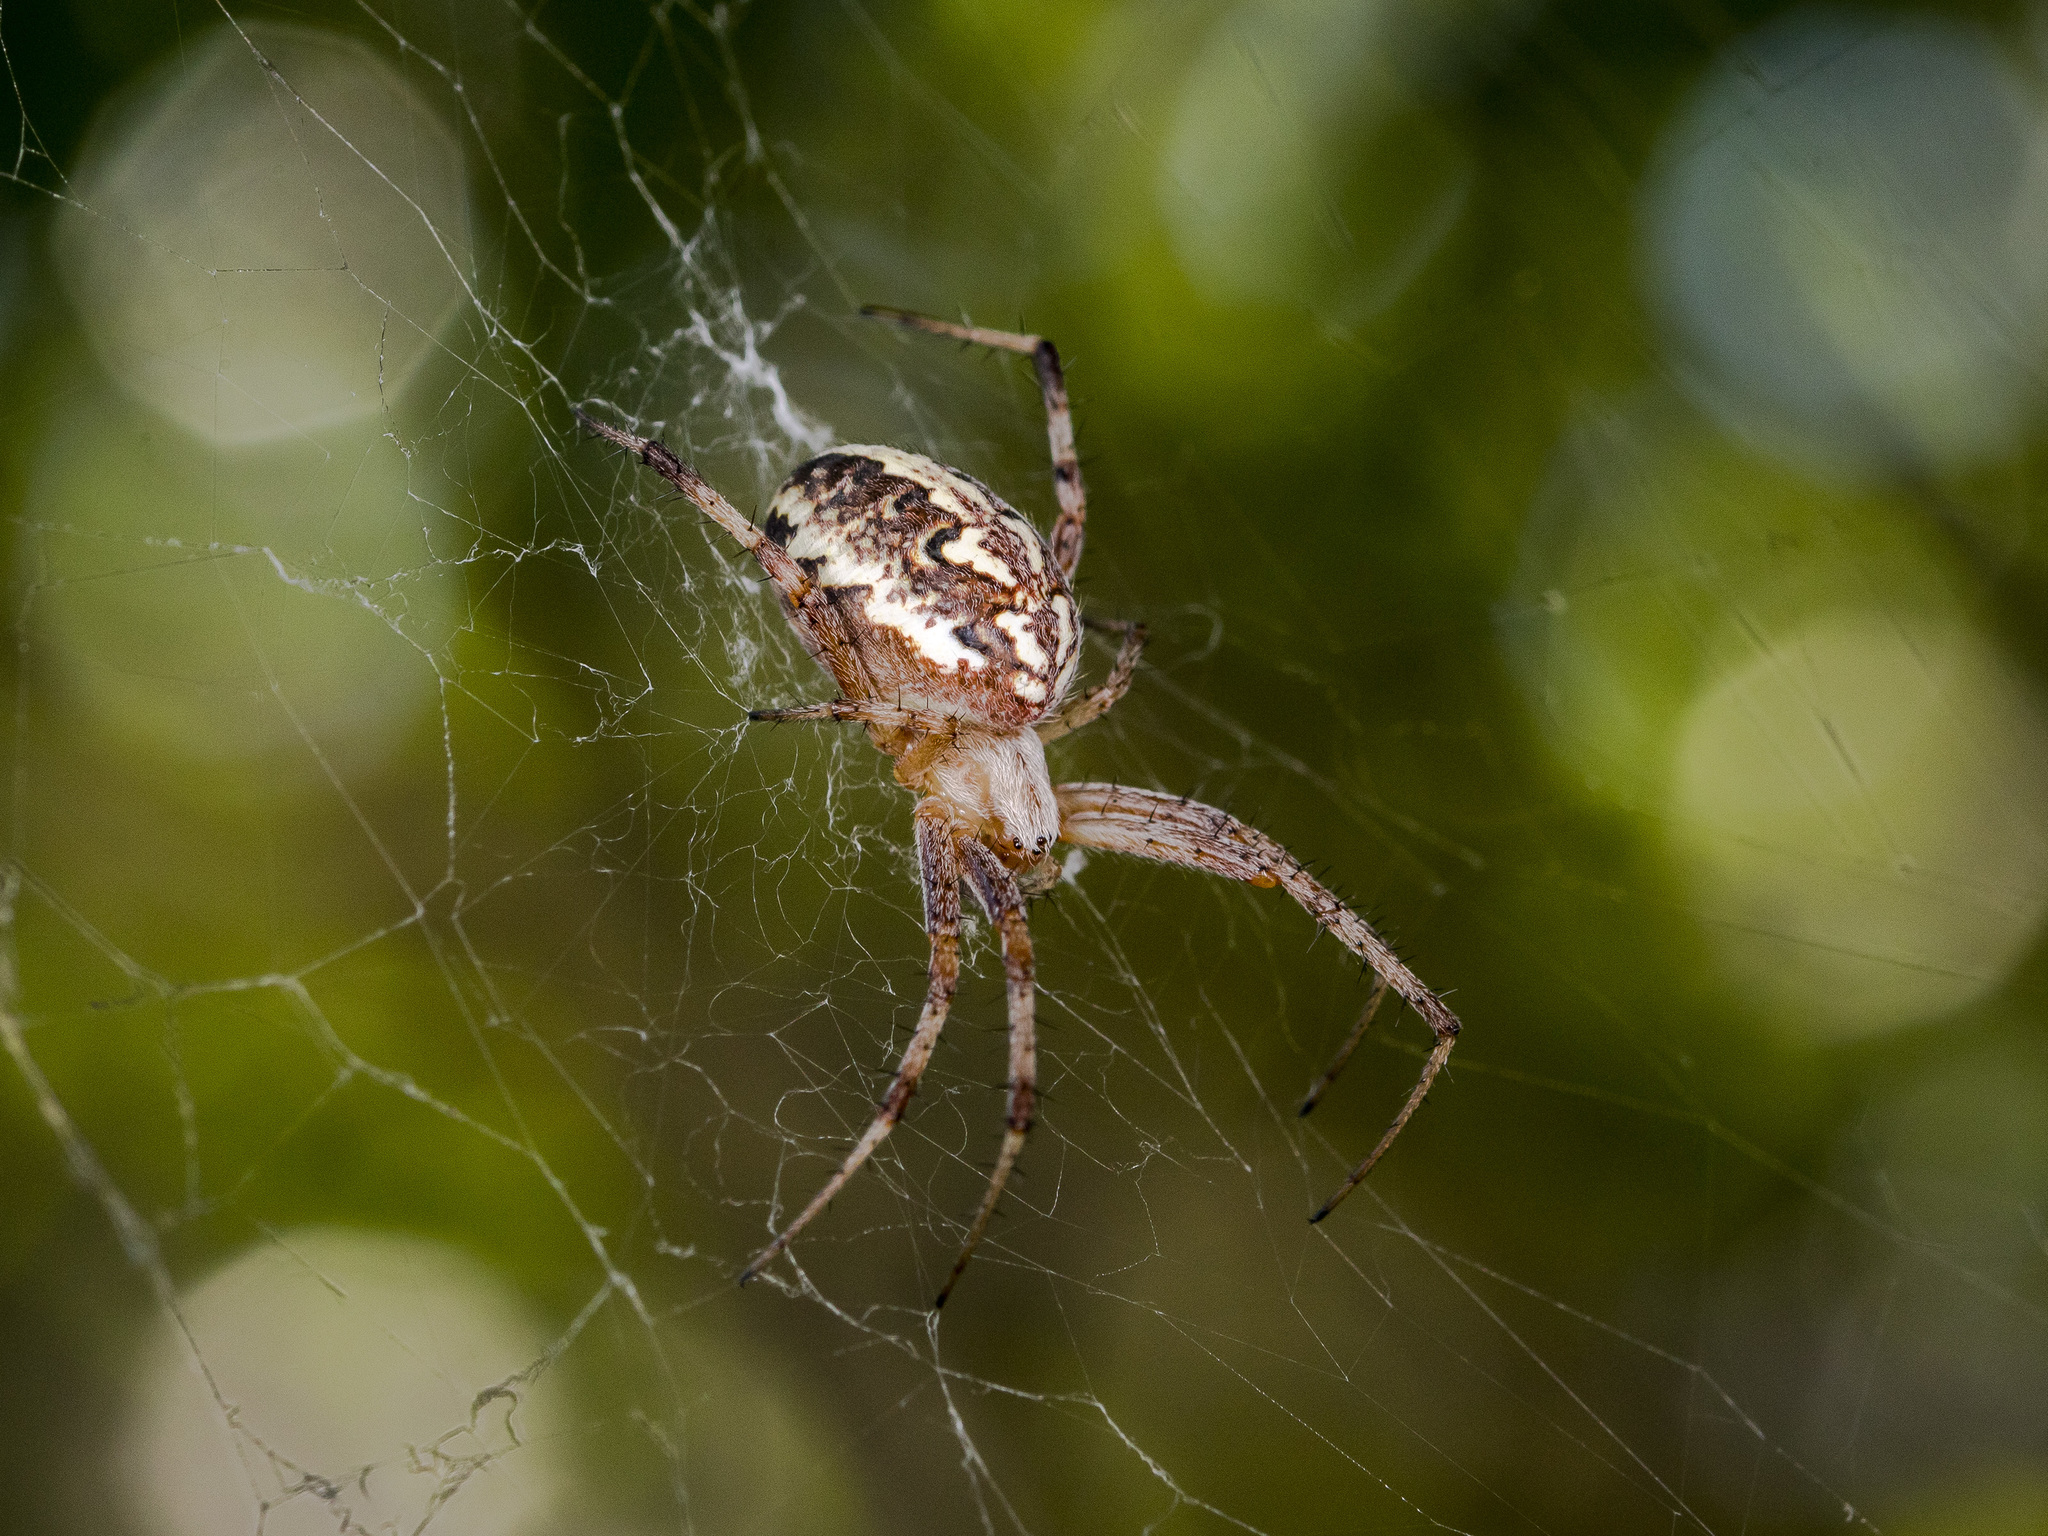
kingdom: Animalia
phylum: Arthropoda
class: Arachnida
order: Araneae
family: Araneidae
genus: Neoscona
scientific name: Neoscona adianta
